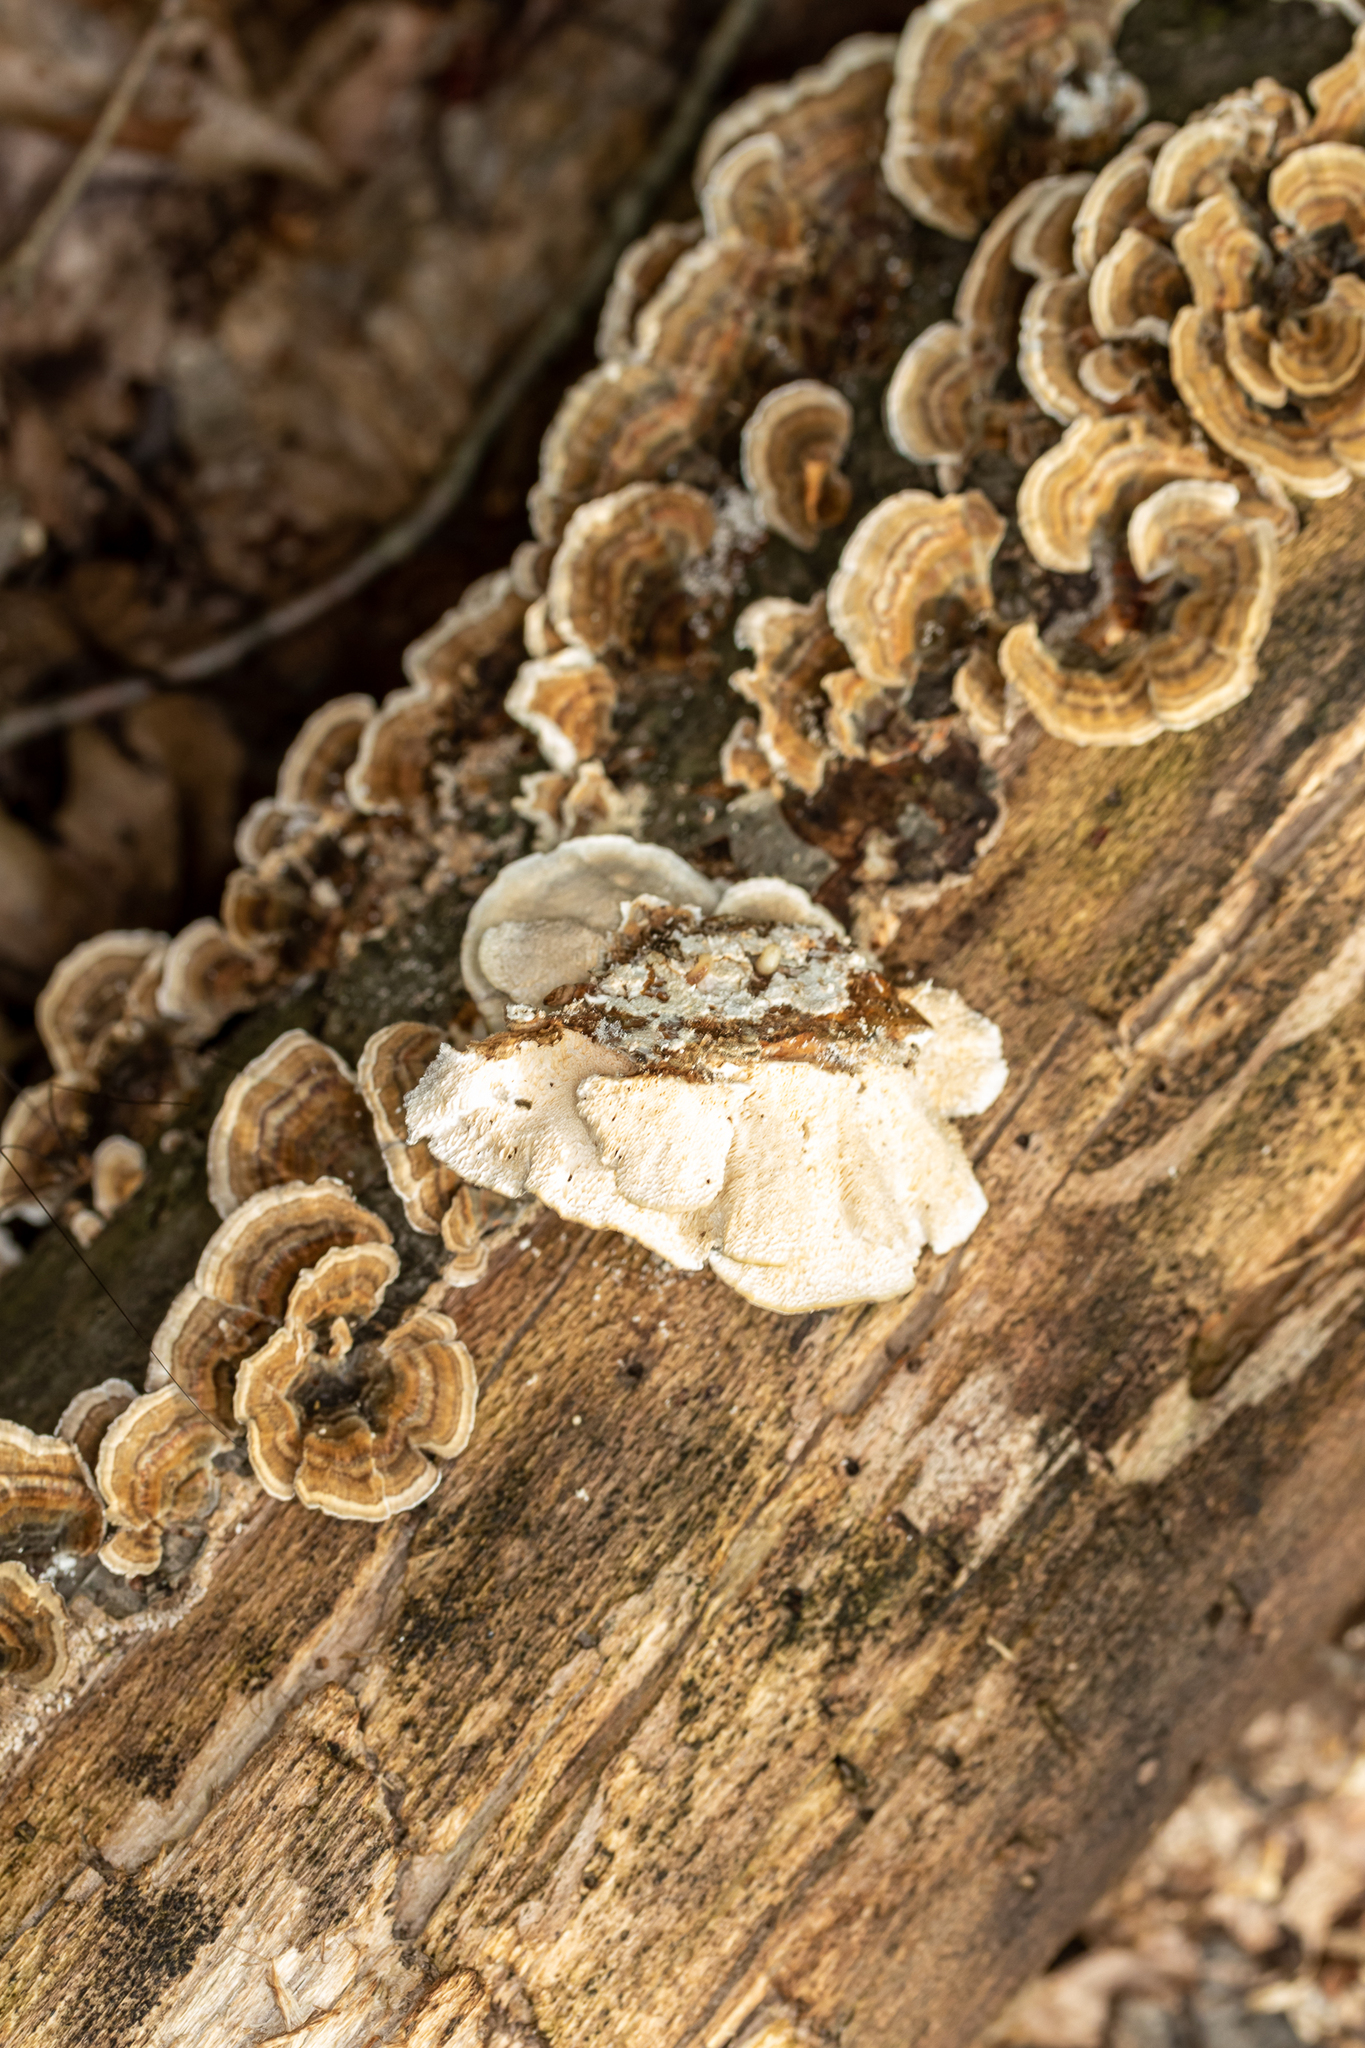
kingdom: Fungi
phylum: Basidiomycota
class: Agaricomycetes
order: Polyporales
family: Polyporaceae
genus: Trametes
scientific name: Trametes versicolor
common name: Turkeytail
